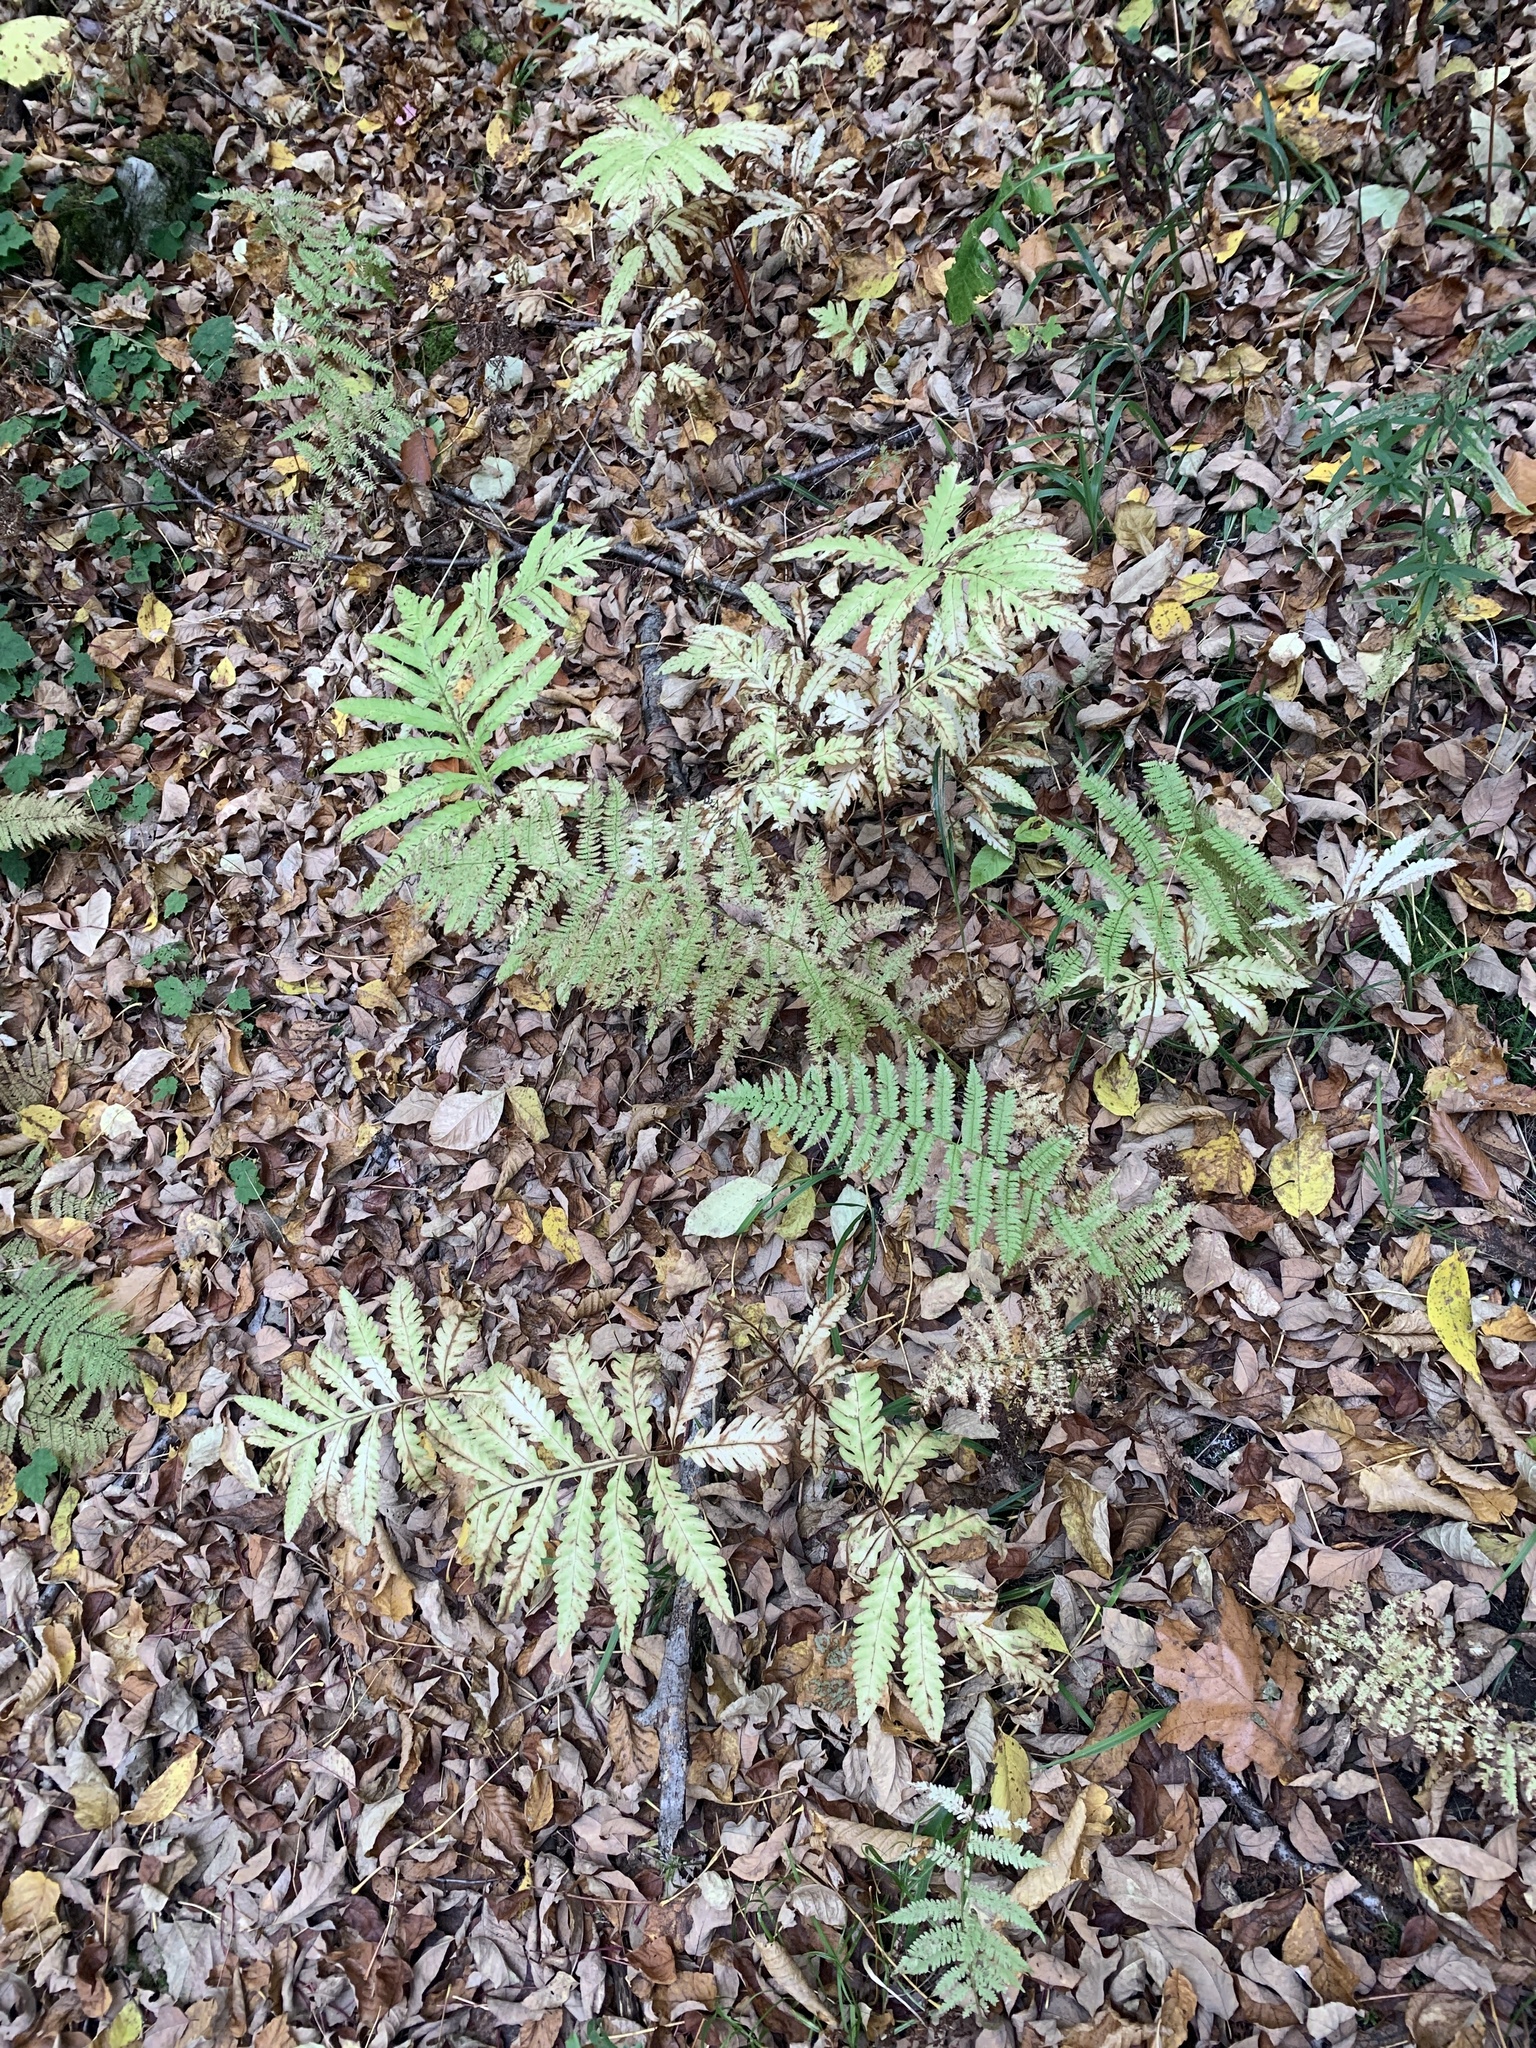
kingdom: Plantae
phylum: Tracheophyta
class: Polypodiopsida
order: Polypodiales
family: Onocleaceae
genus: Onoclea
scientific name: Onoclea sensibilis
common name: Sensitive fern
